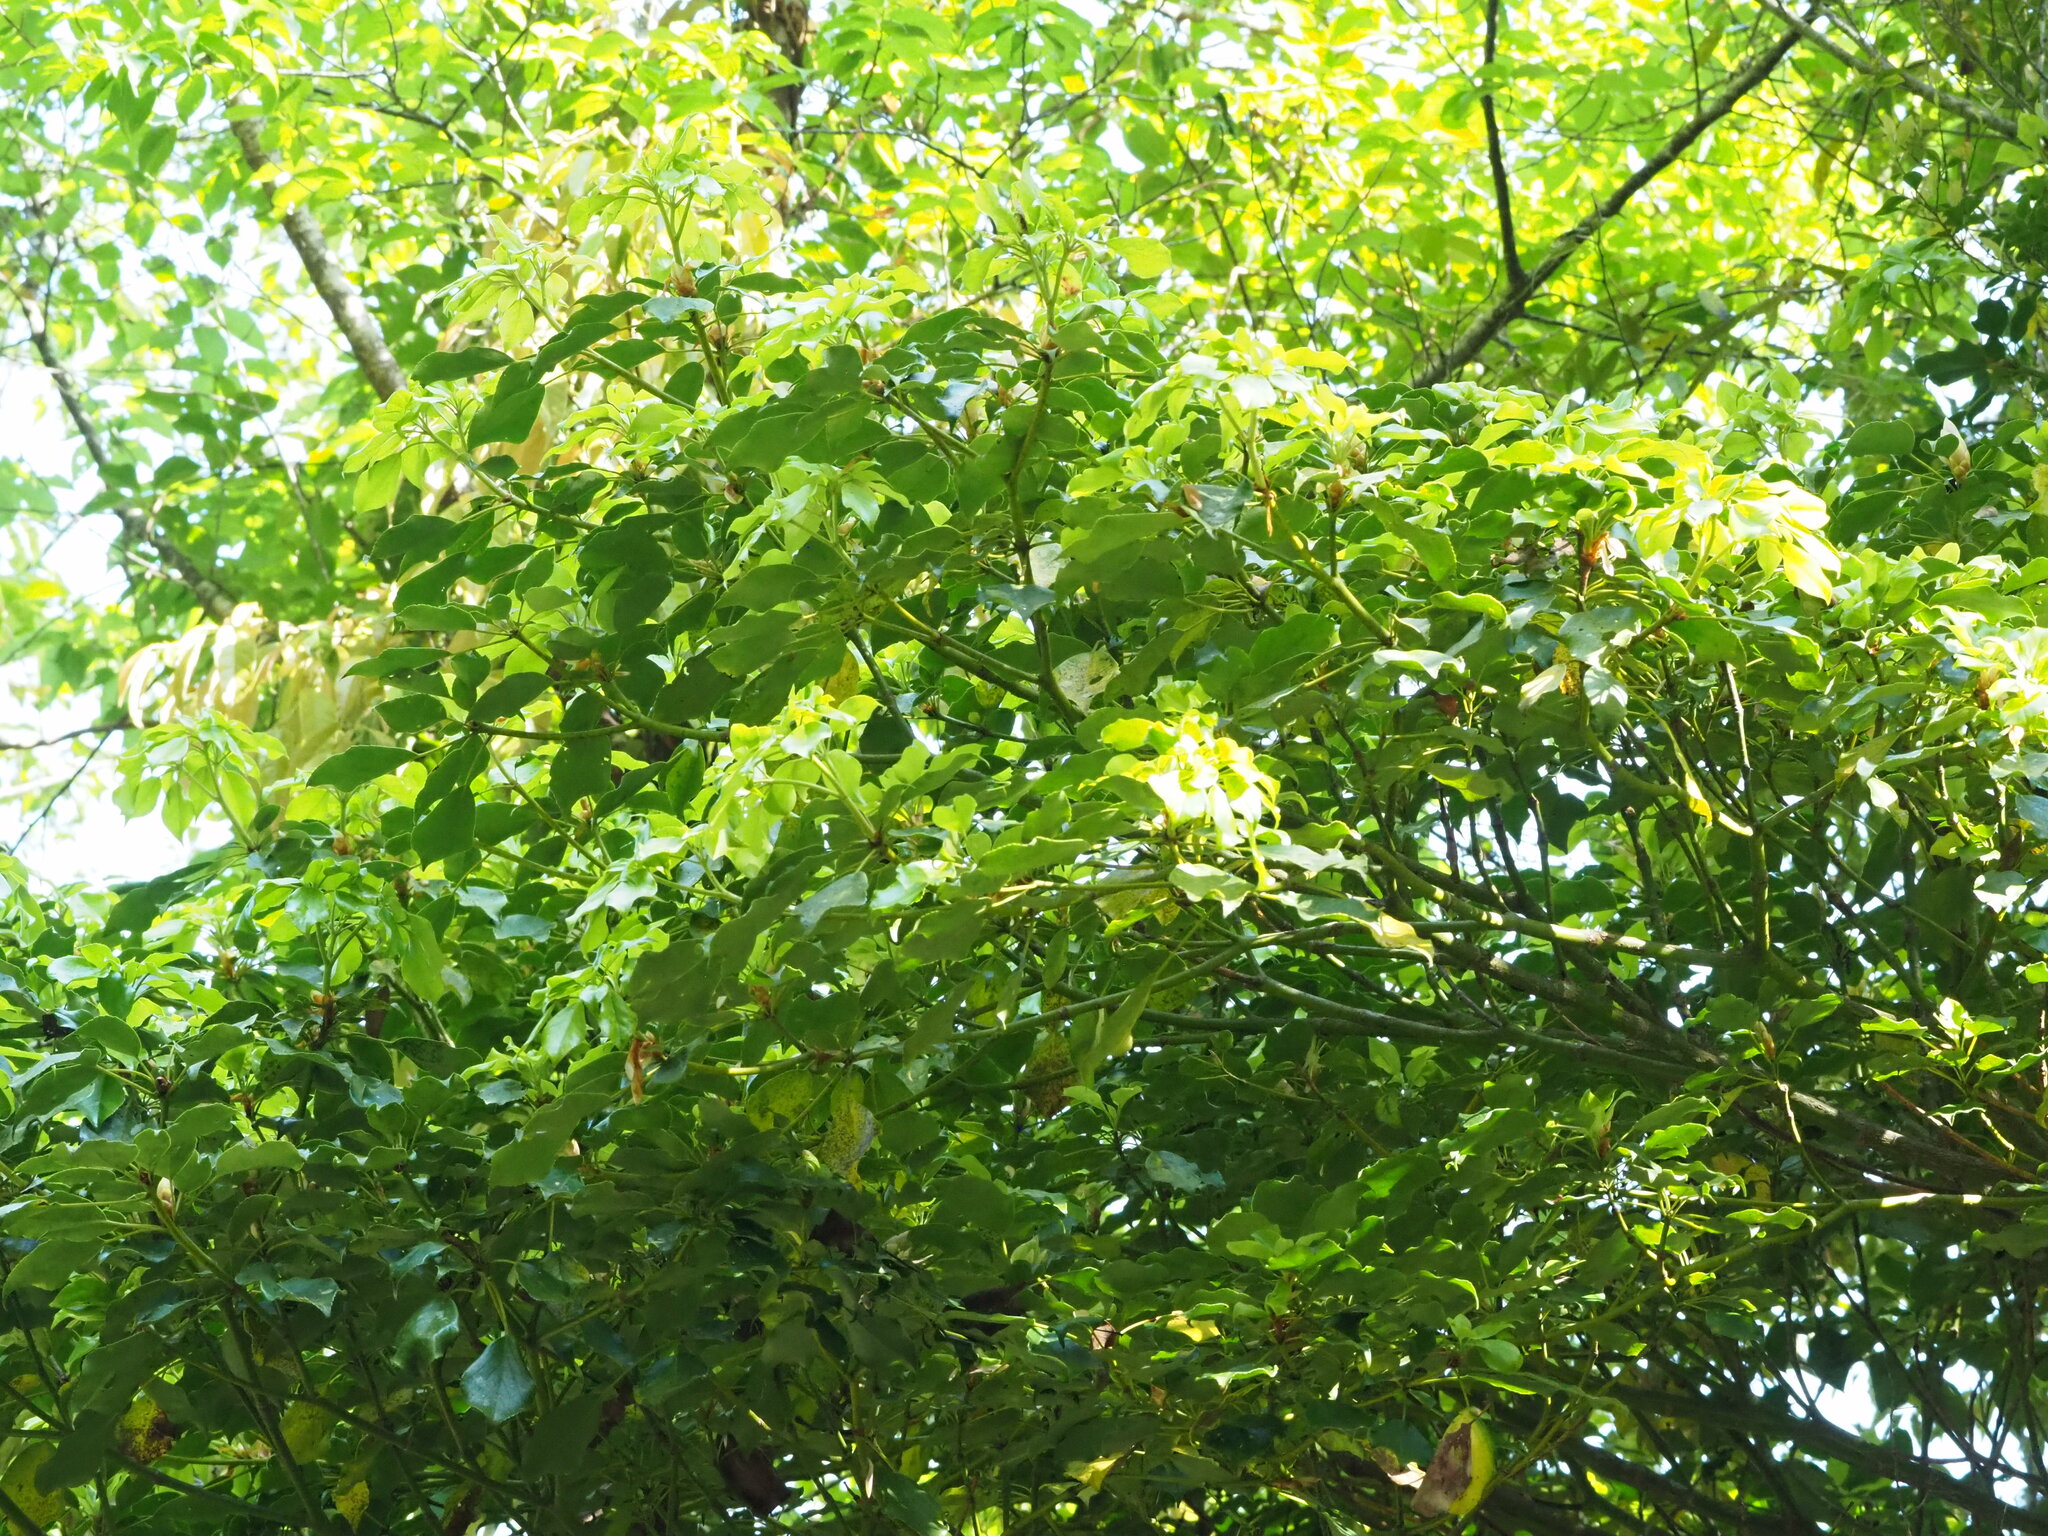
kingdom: Plantae
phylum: Tracheophyta
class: Magnoliopsida
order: Trochodendrales
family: Trochodendraceae
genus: Trochodendron
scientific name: Trochodendron aralioides
